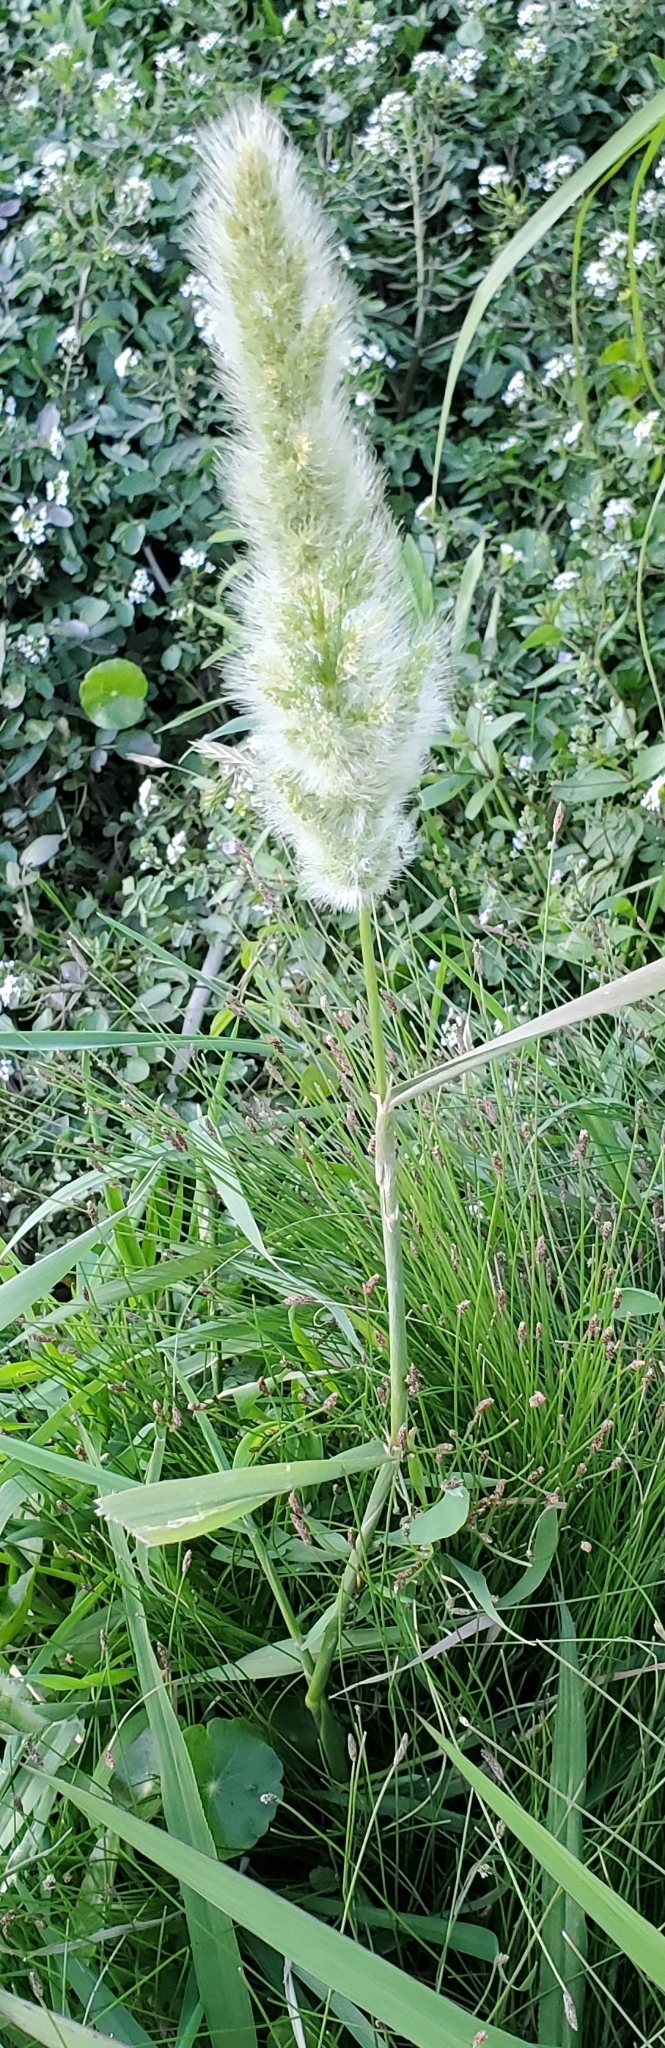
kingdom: Plantae
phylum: Tracheophyta
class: Liliopsida
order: Poales
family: Poaceae
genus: Polypogon
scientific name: Polypogon monspeliensis
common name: Annual rabbitsfoot grass
